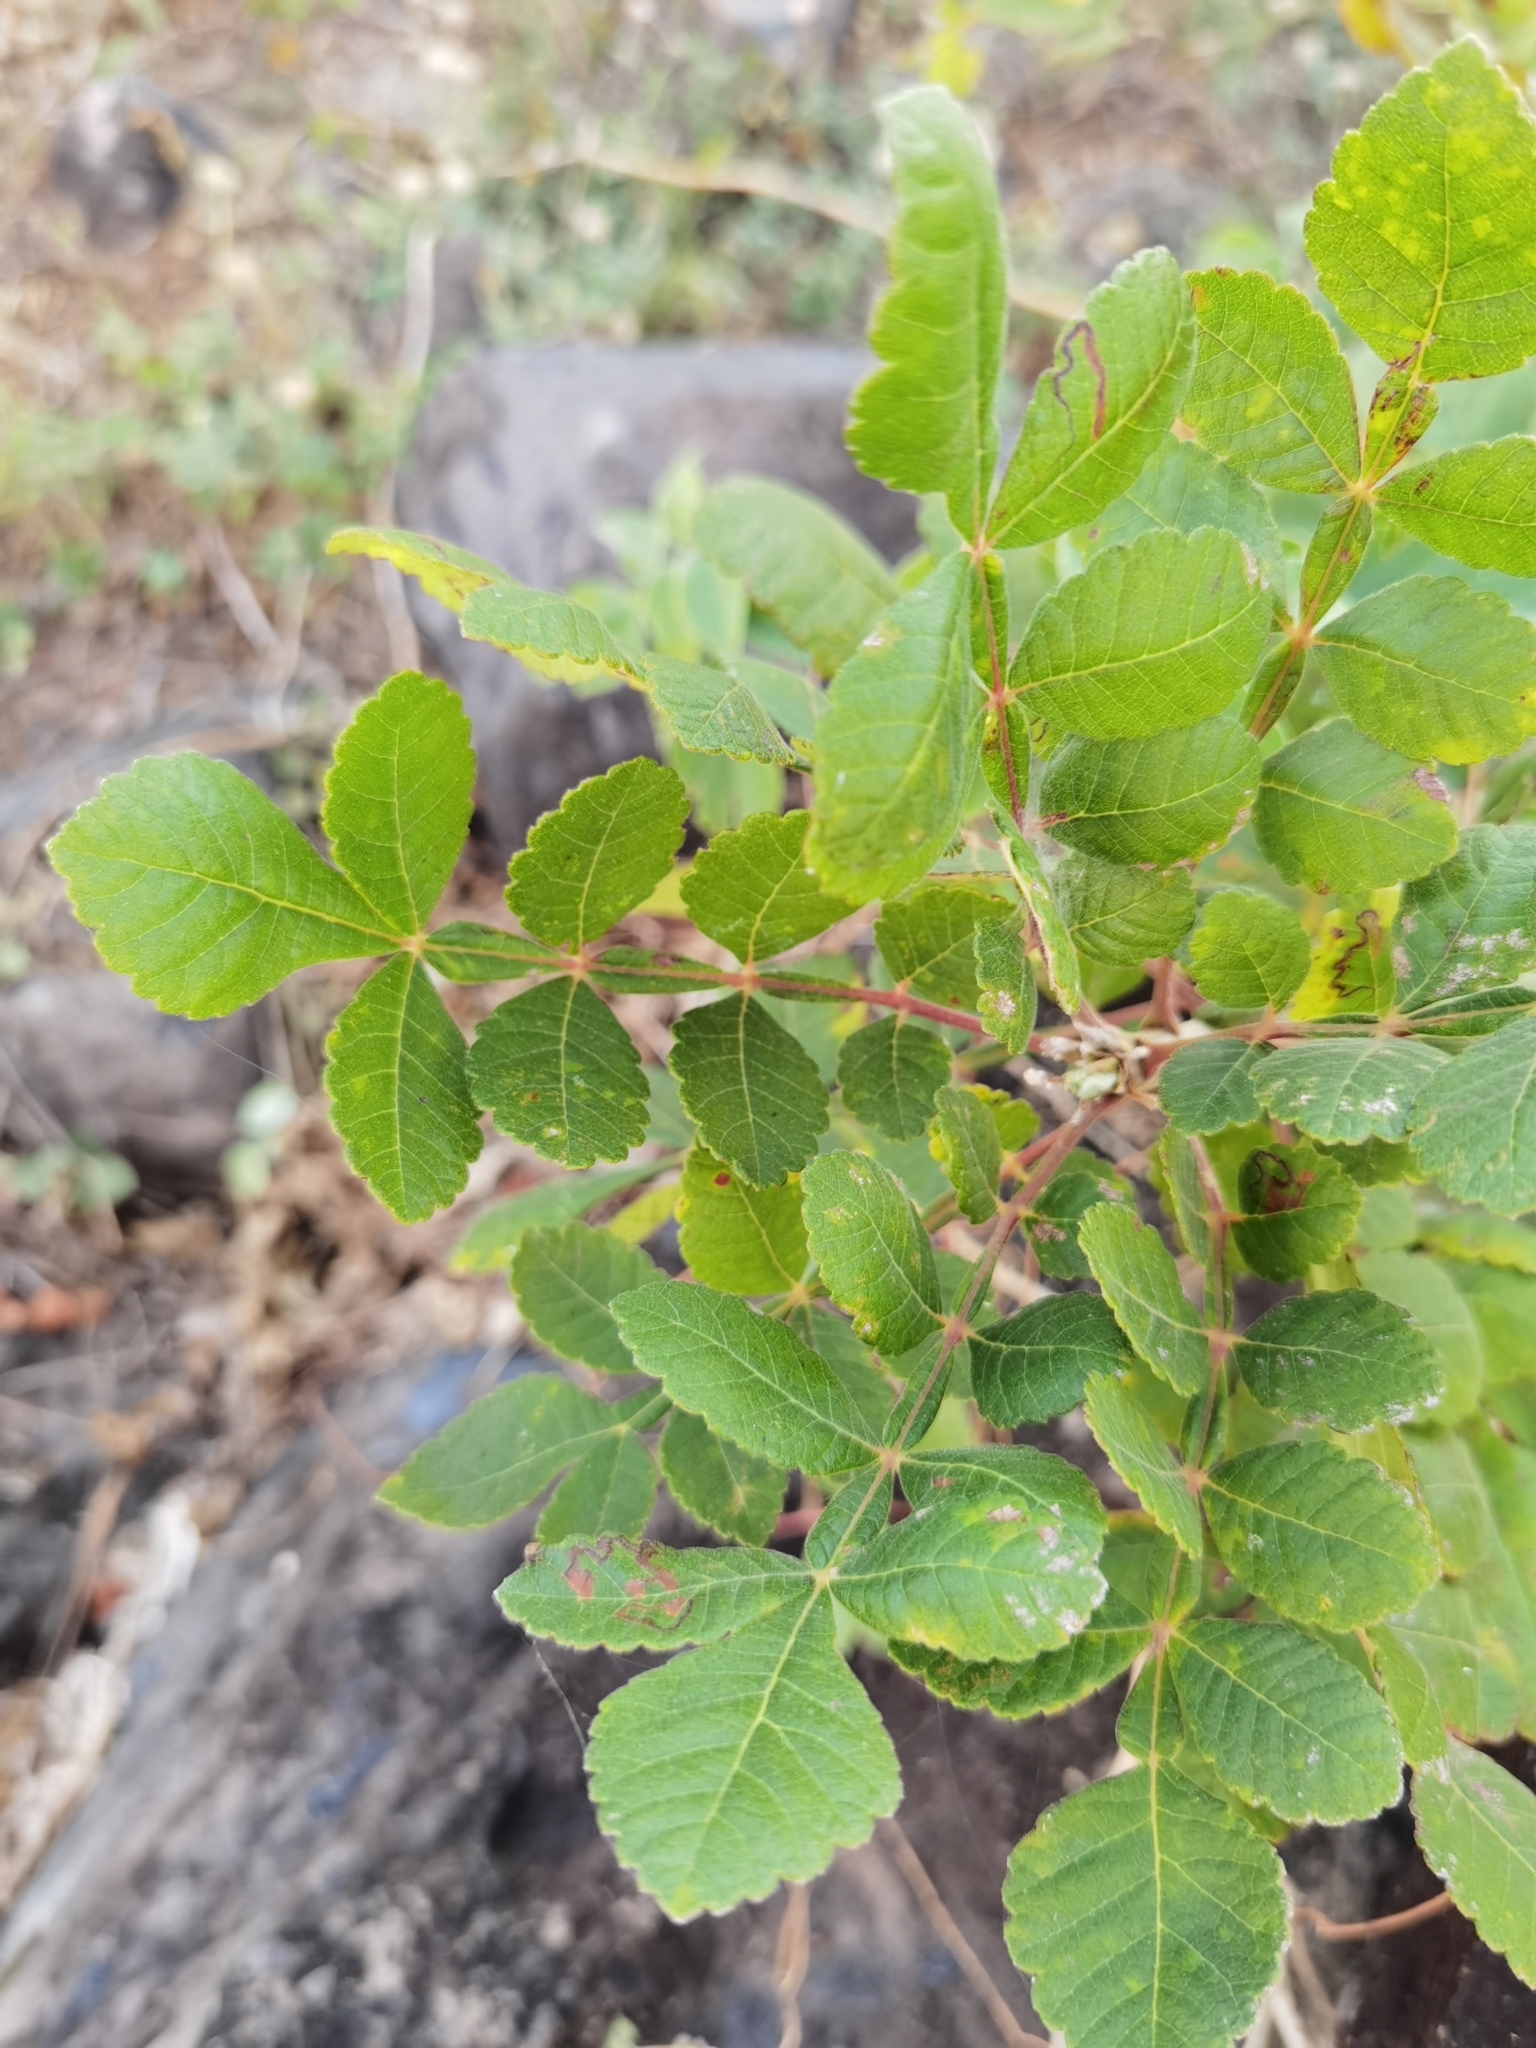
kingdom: Plantae
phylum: Tracheophyta
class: Magnoliopsida
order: Sapindales
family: Burseraceae
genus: Bursera
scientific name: Bursera tomentosa
